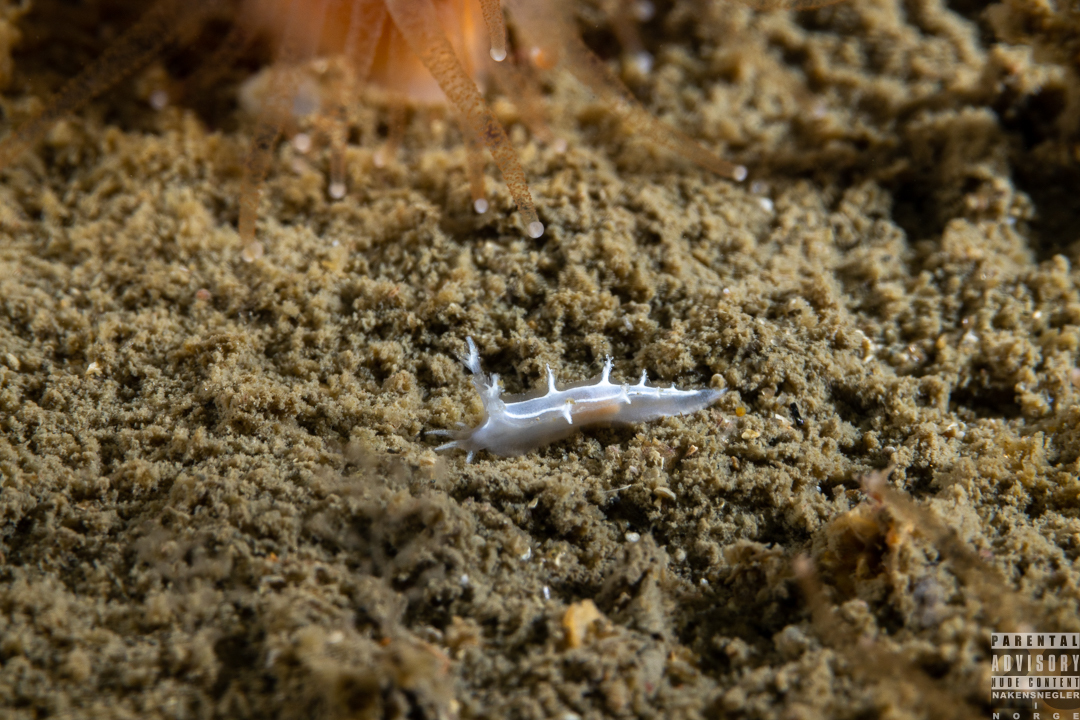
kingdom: Animalia
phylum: Mollusca
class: Gastropoda
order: Nudibranchia
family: Tritoniidae
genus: Duvaucelia
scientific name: Duvaucelia lineata
